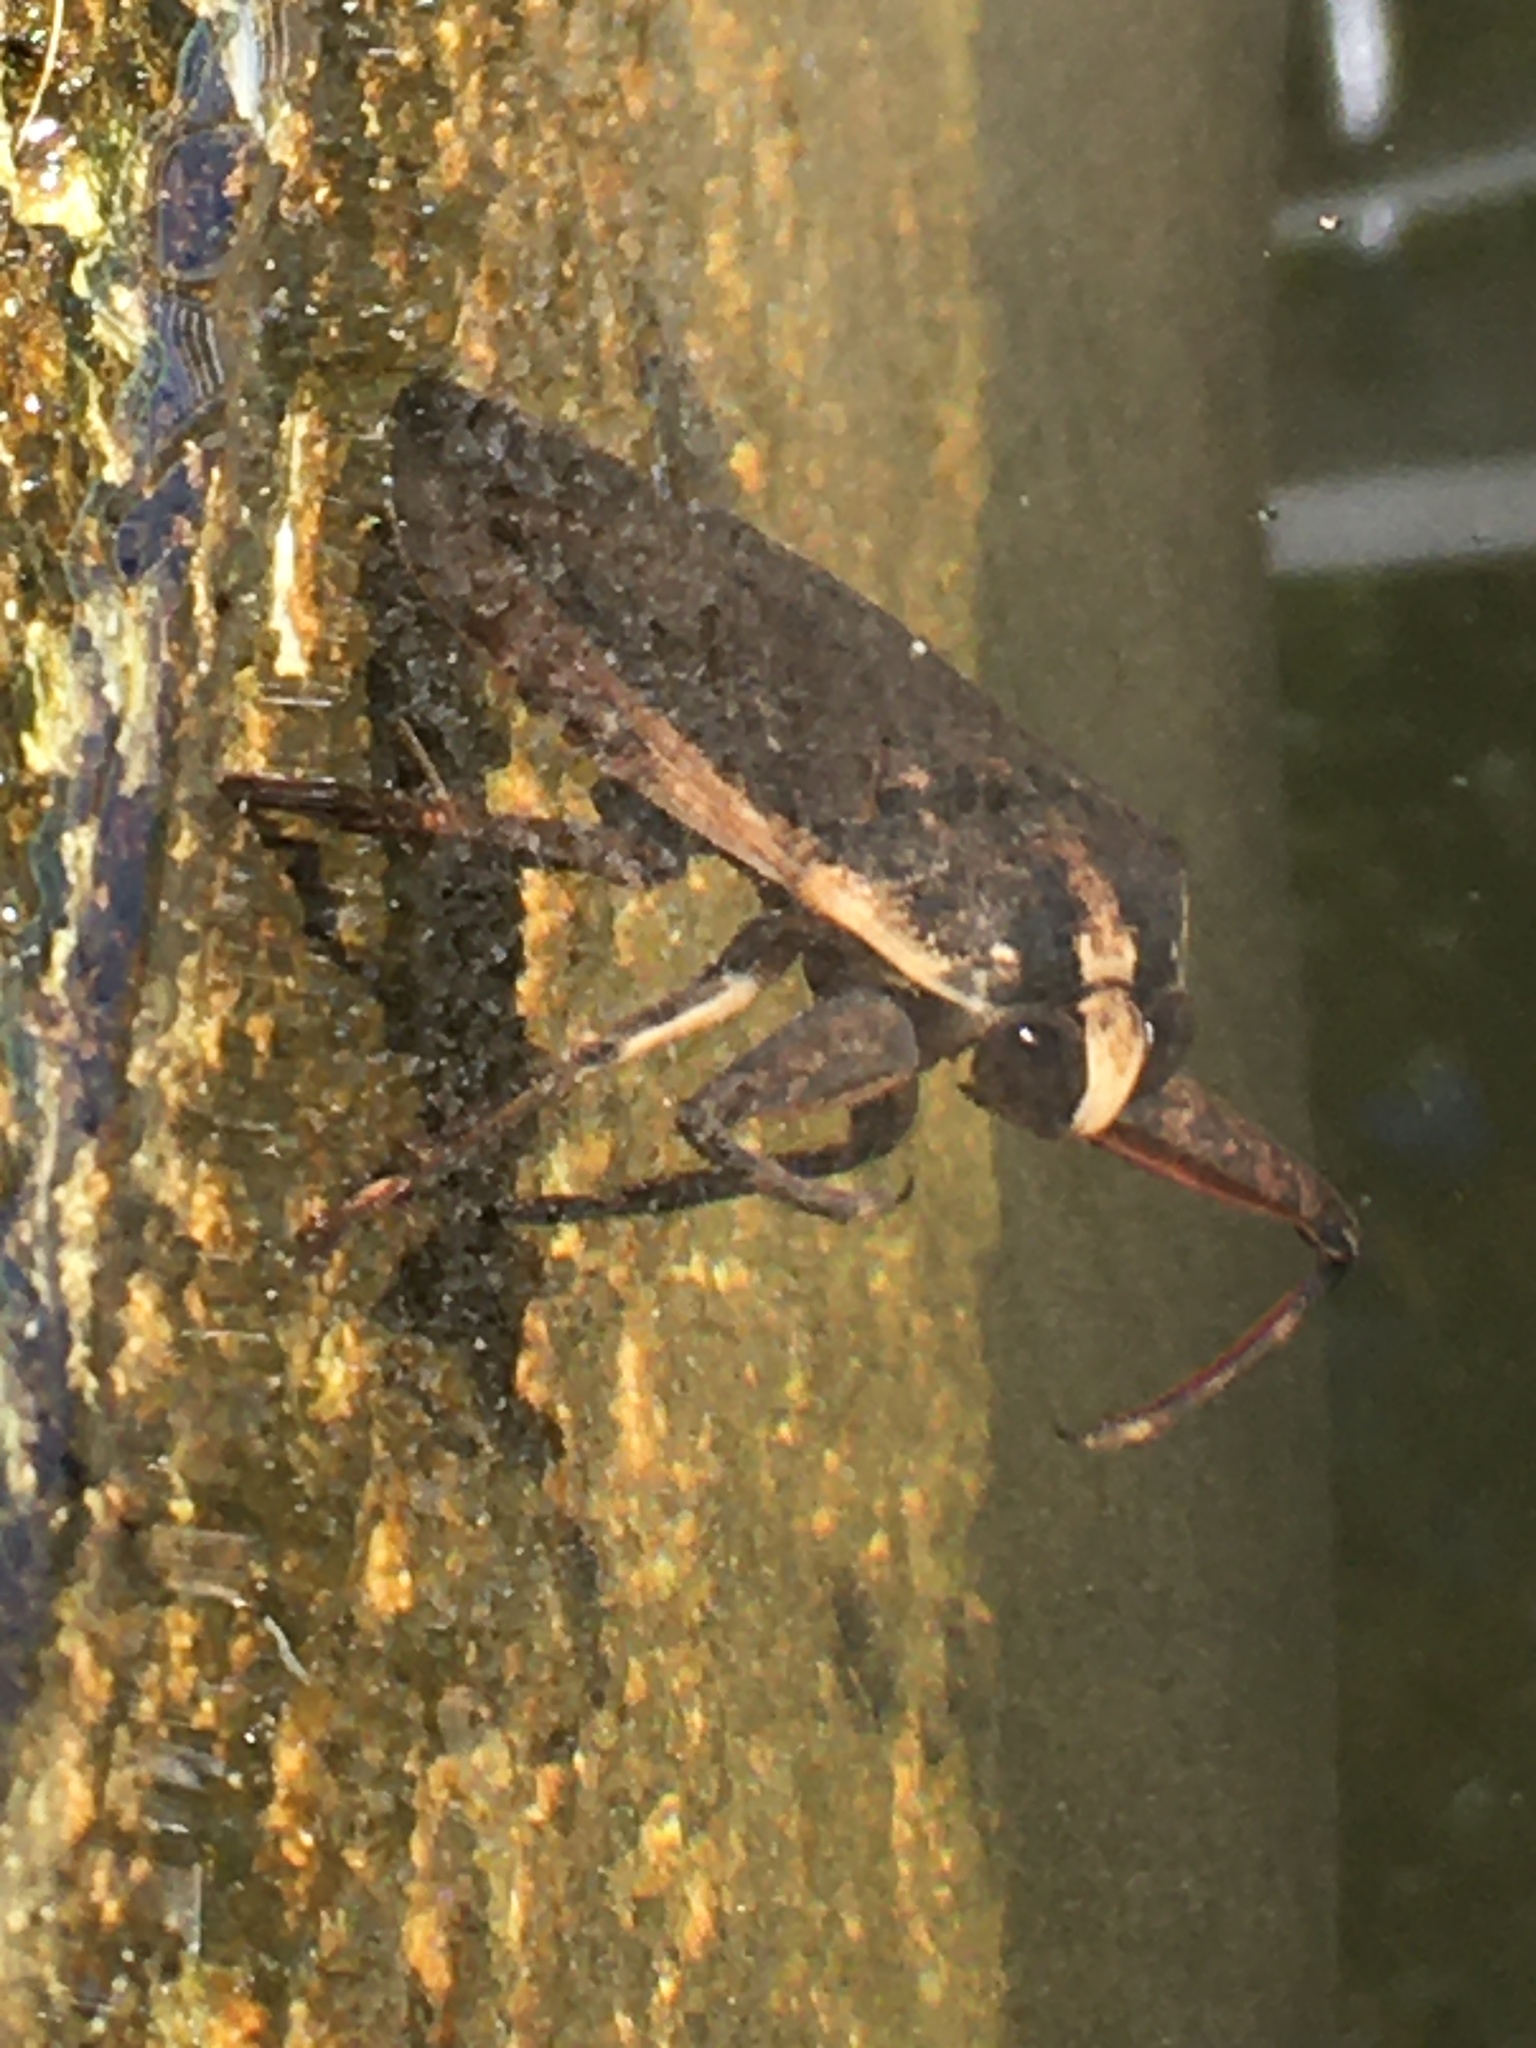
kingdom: Animalia
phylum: Arthropoda
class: Insecta
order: Hemiptera
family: Belostomatidae
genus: Benacus
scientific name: Benacus griseus
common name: Eastern toe-biter
